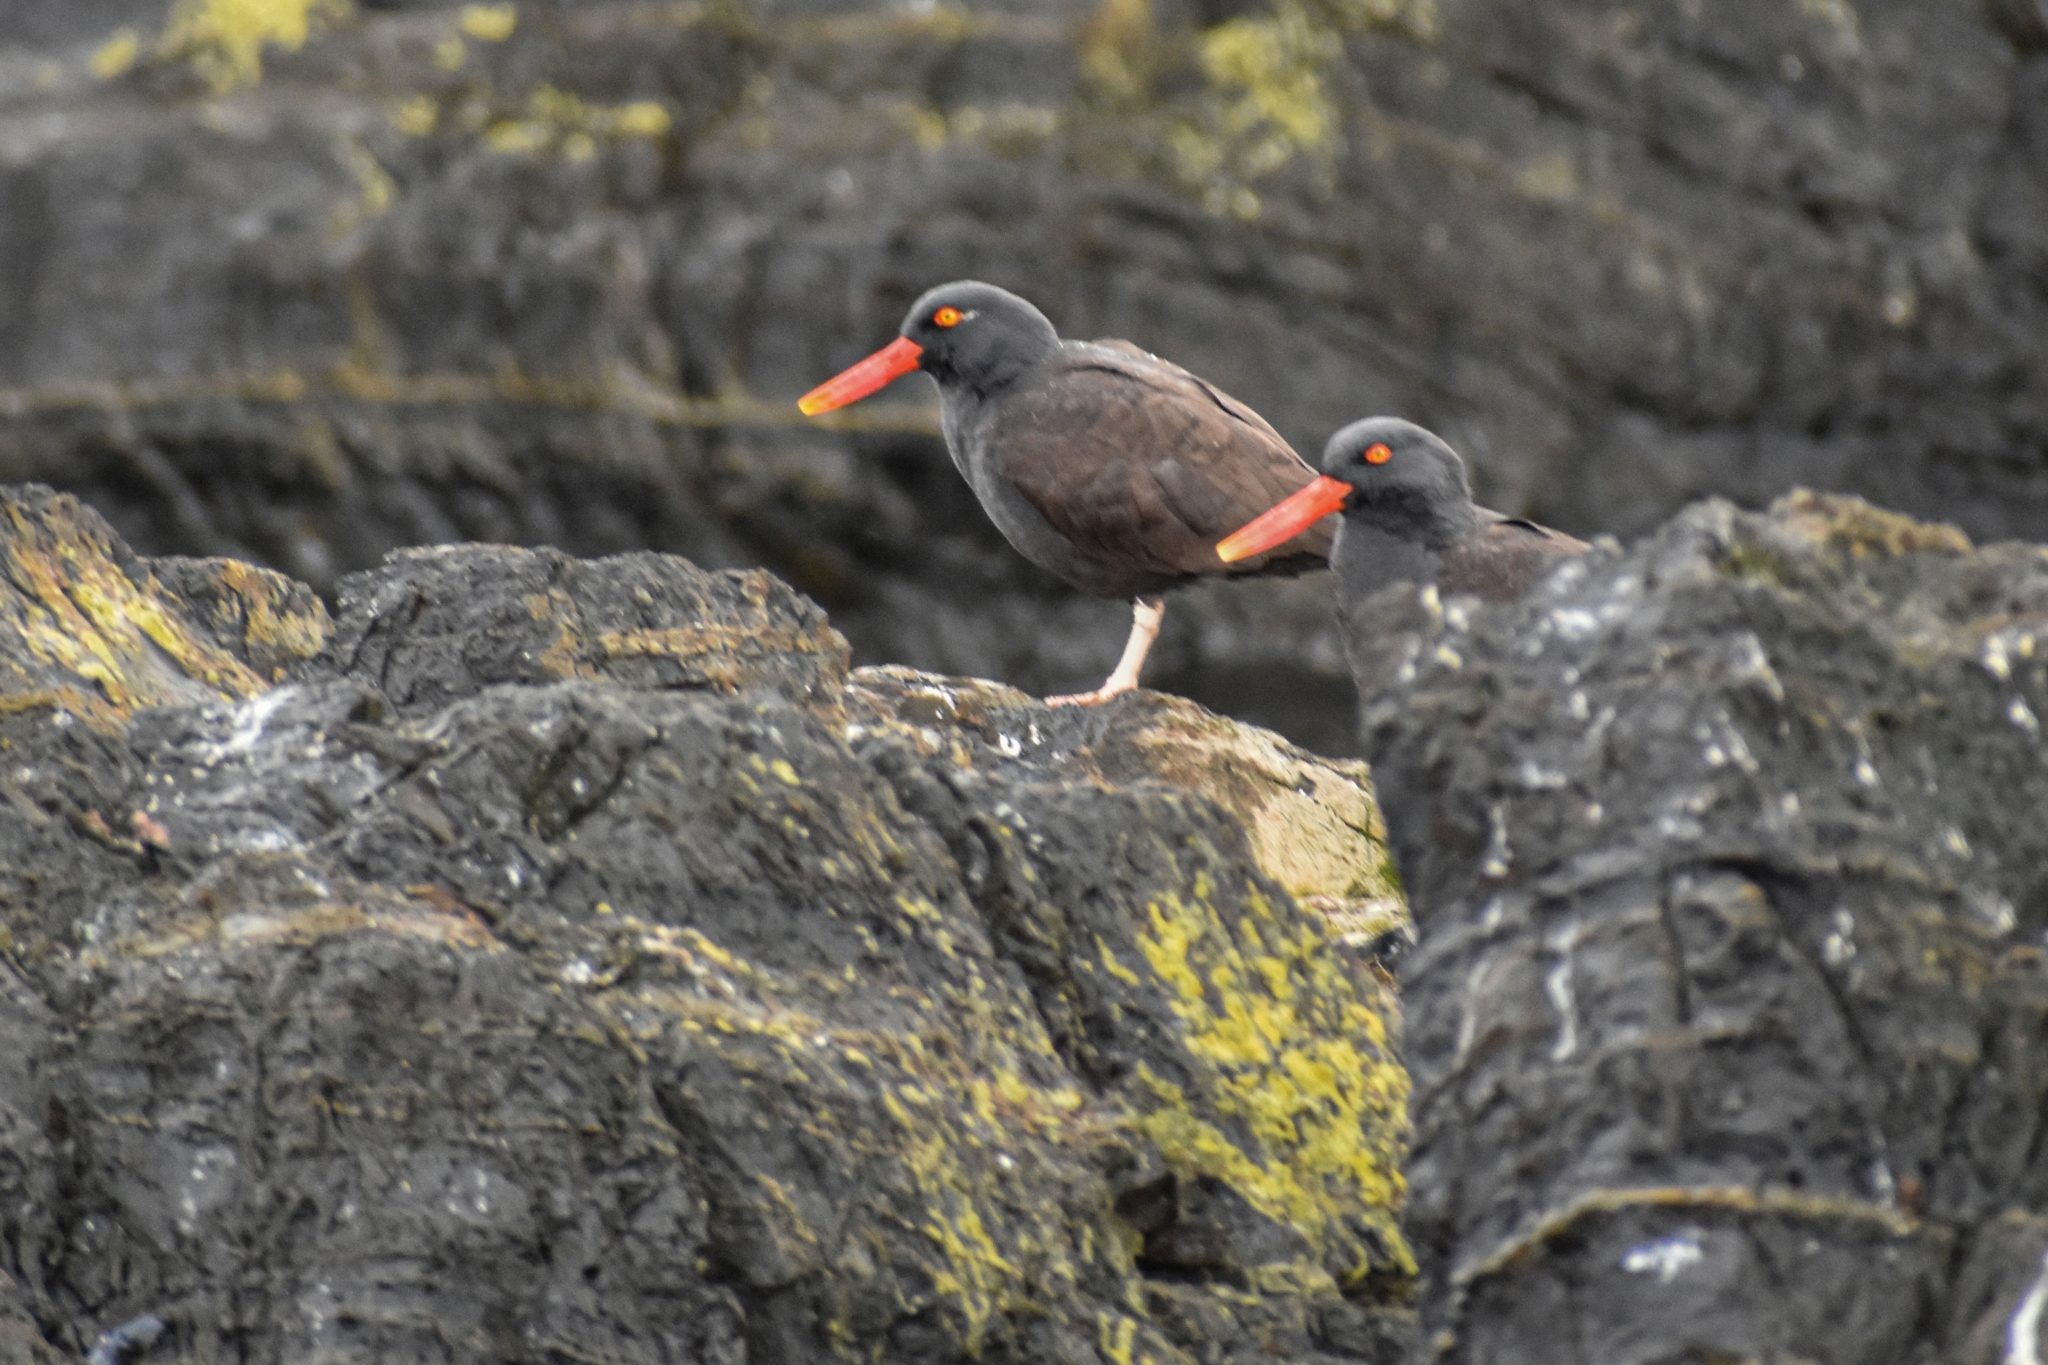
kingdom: Animalia
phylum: Chordata
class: Aves
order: Charadriiformes
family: Haematopodidae
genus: Haematopus
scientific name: Haematopus ater
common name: Blackish oystercatcher
